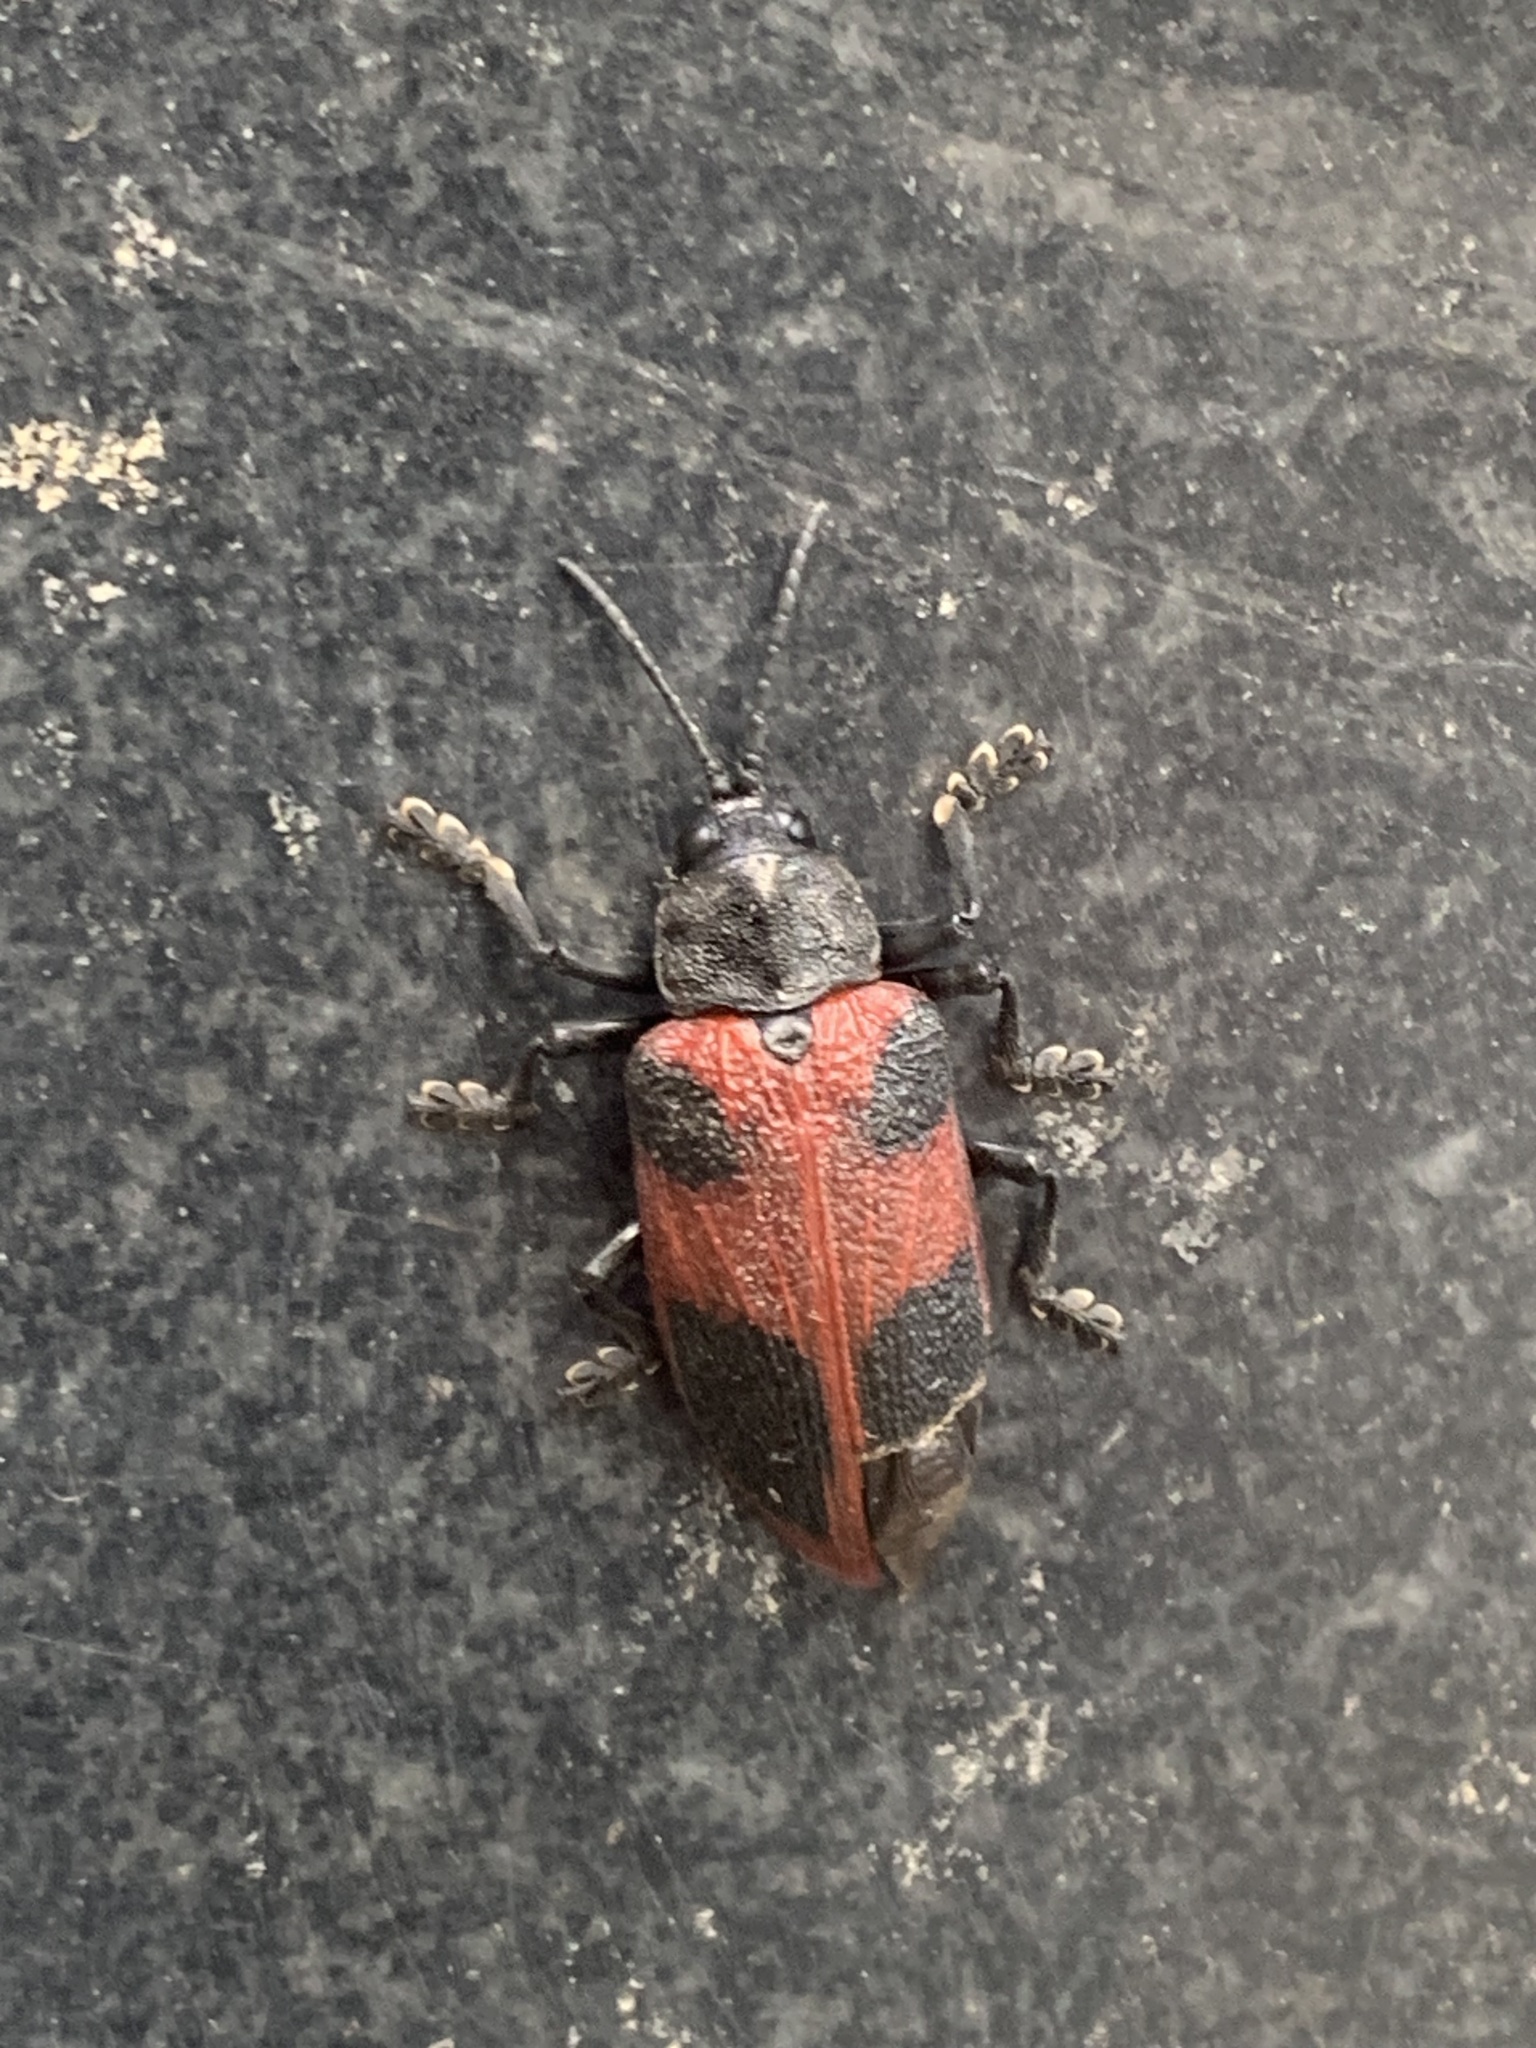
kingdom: Animalia
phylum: Arthropoda
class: Insecta
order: Coleoptera
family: Chrysomelidae
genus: Coraliomela
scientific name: Coraliomela quadrimaculata
